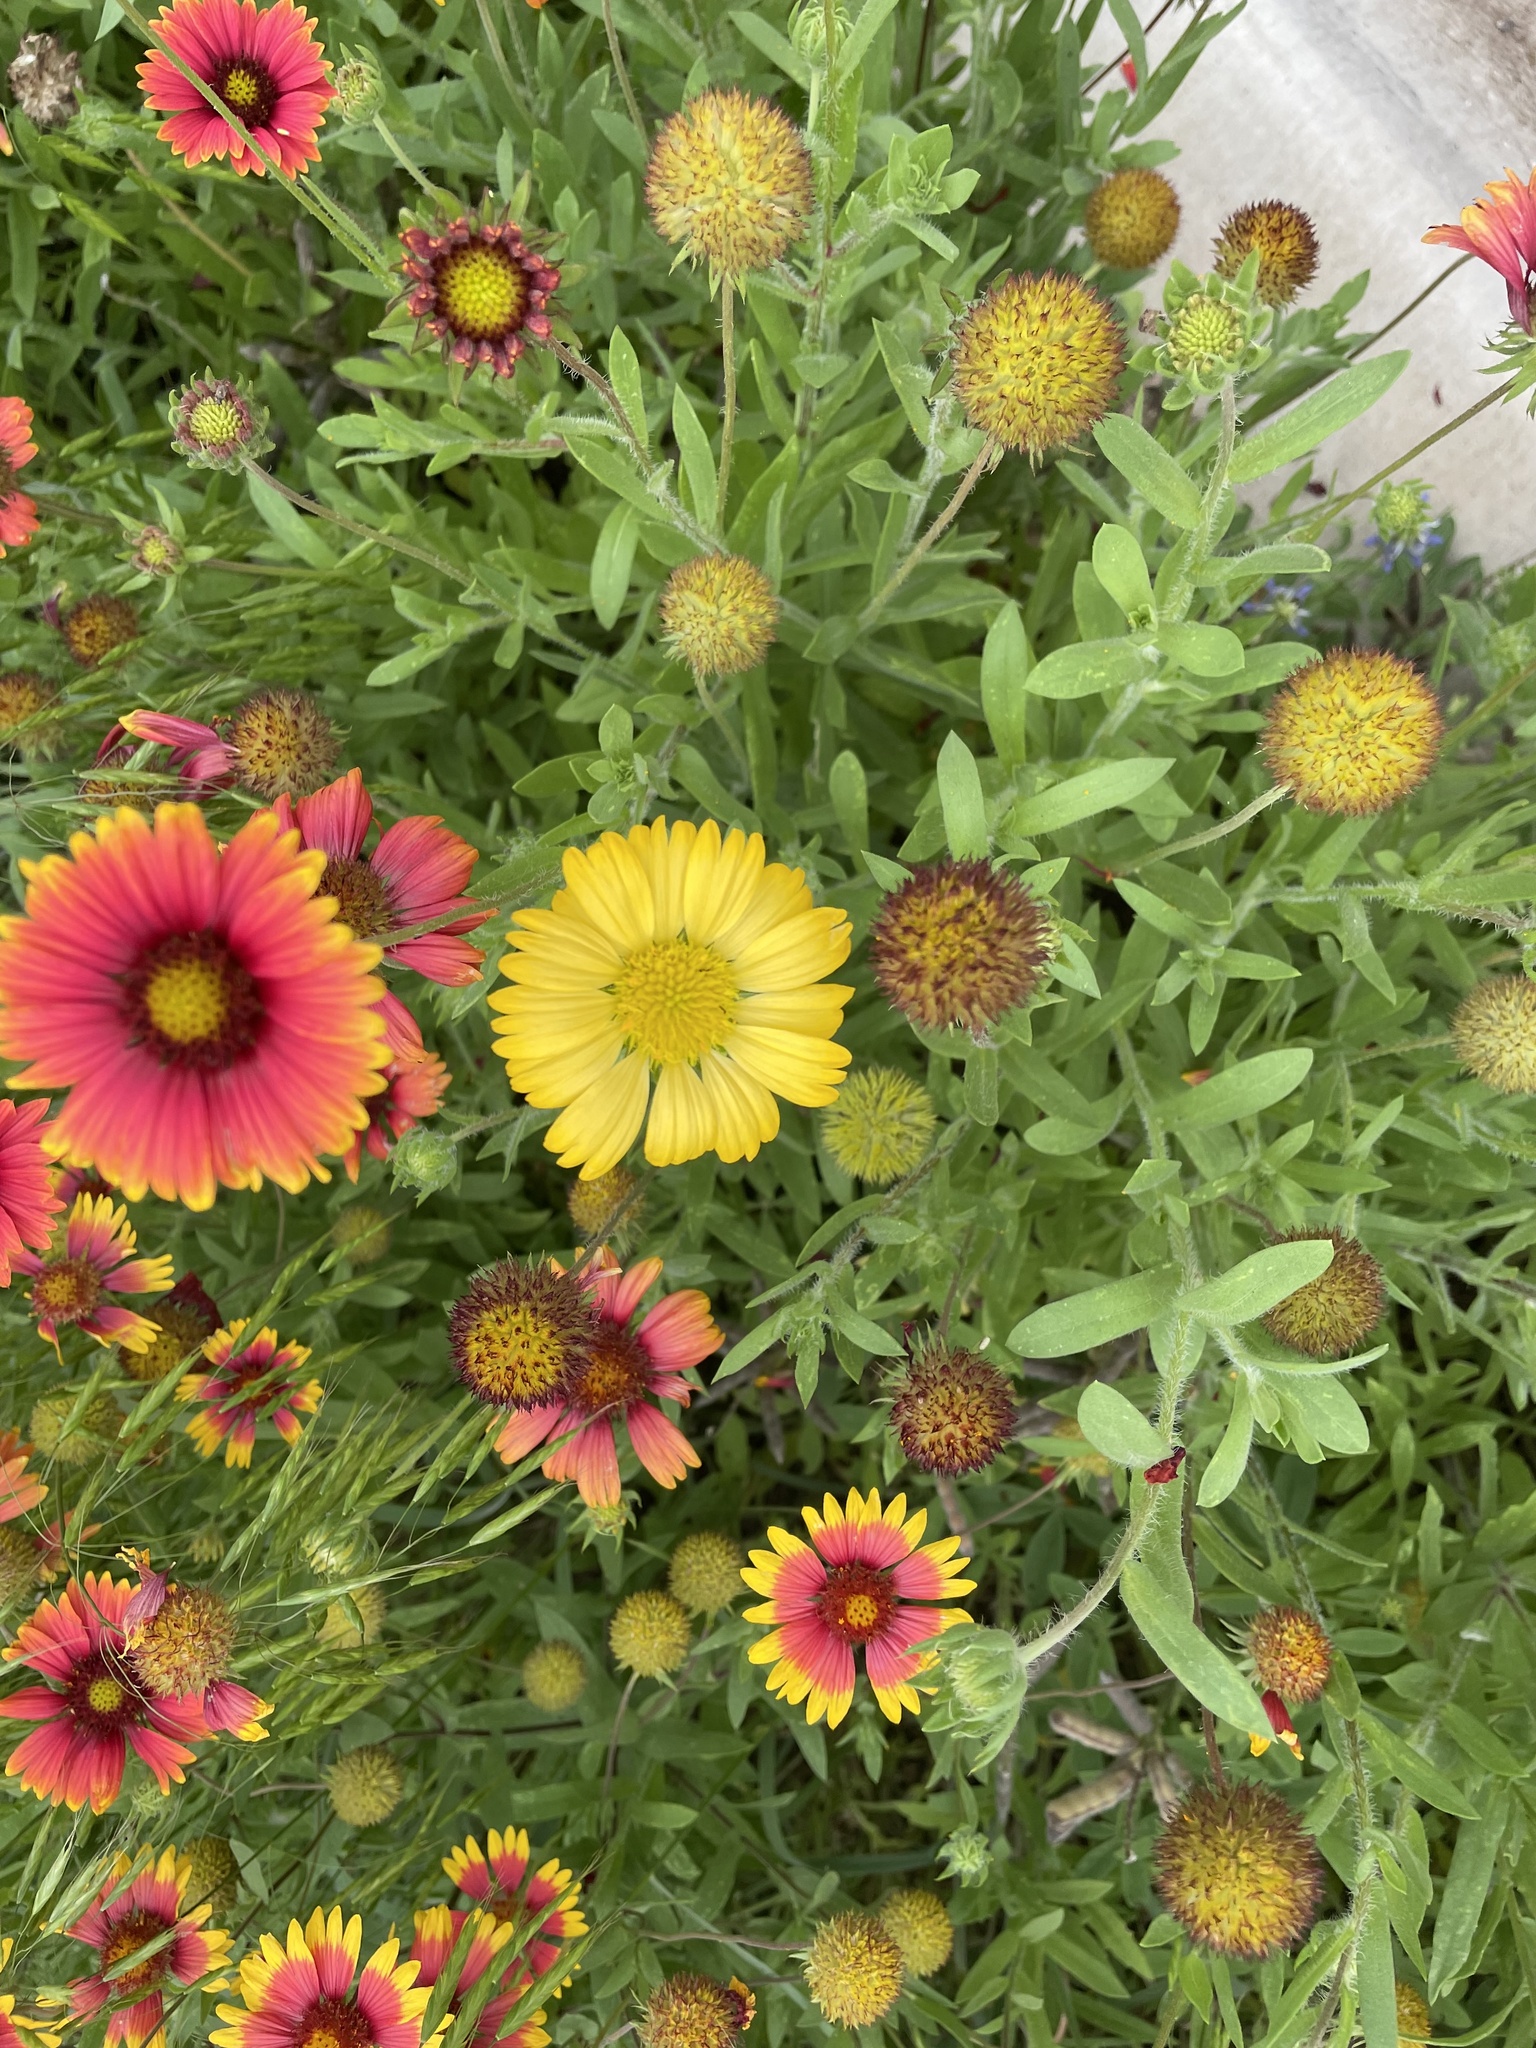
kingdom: Plantae
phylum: Tracheophyta
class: Magnoliopsida
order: Asterales
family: Asteraceae
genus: Gaillardia
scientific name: Gaillardia pulchella
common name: Firewheel
